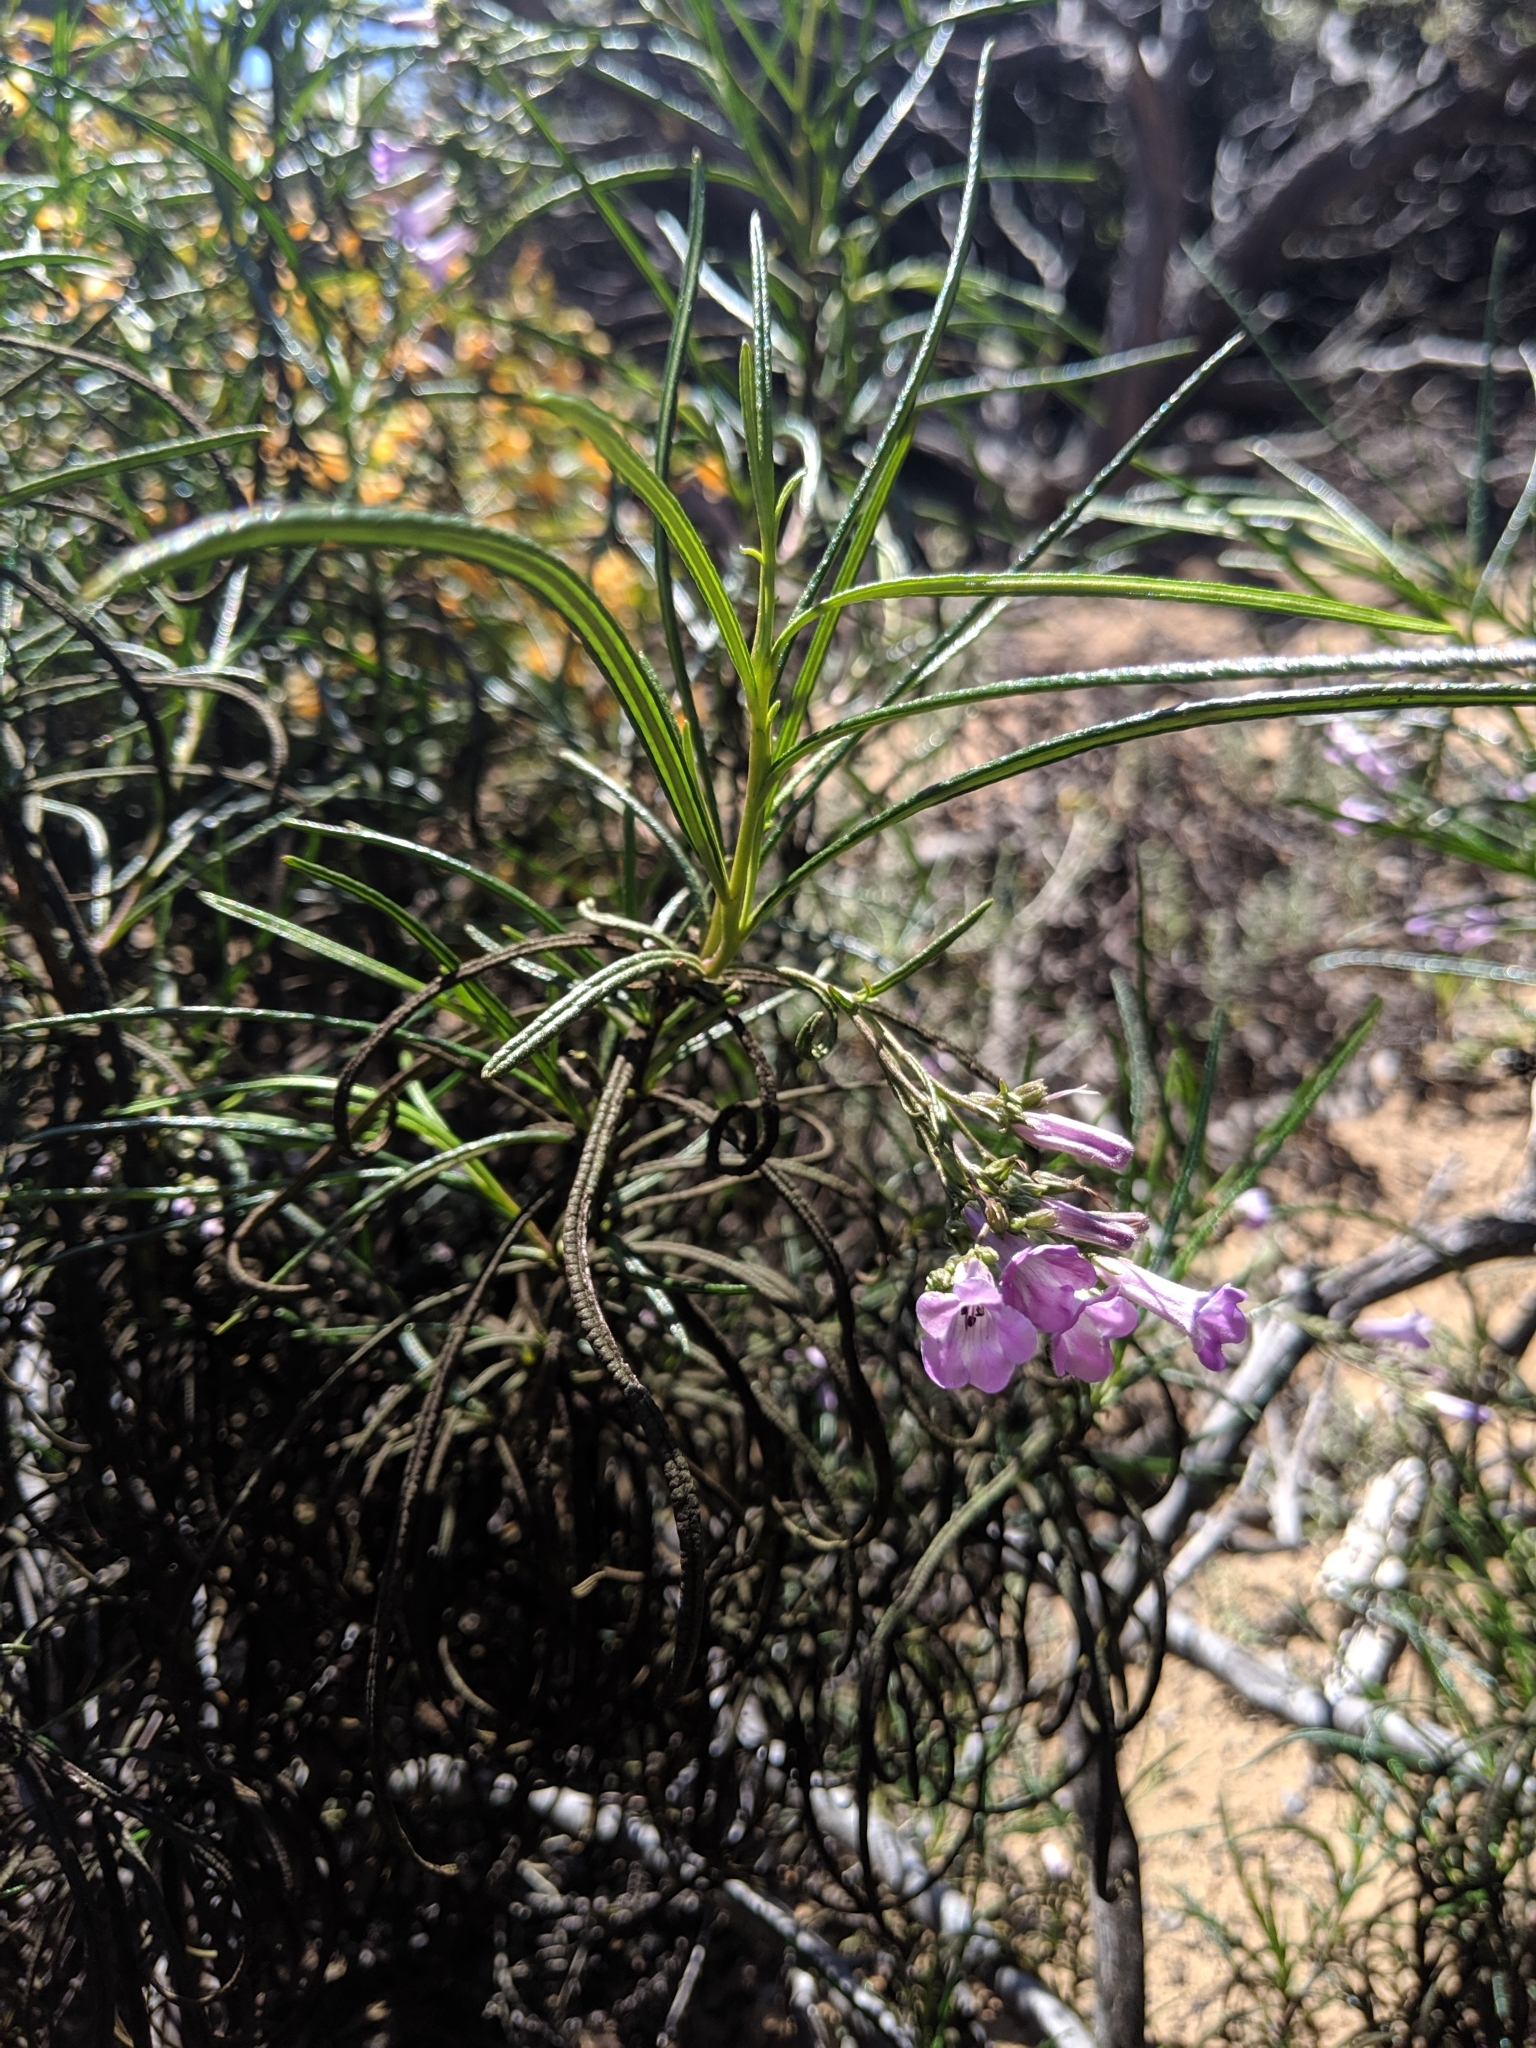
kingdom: Plantae
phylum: Tracheophyta
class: Magnoliopsida
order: Boraginales
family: Namaceae
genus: Eriodictyon
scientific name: Eriodictyon altissimum
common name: Indian knob mountain balm
